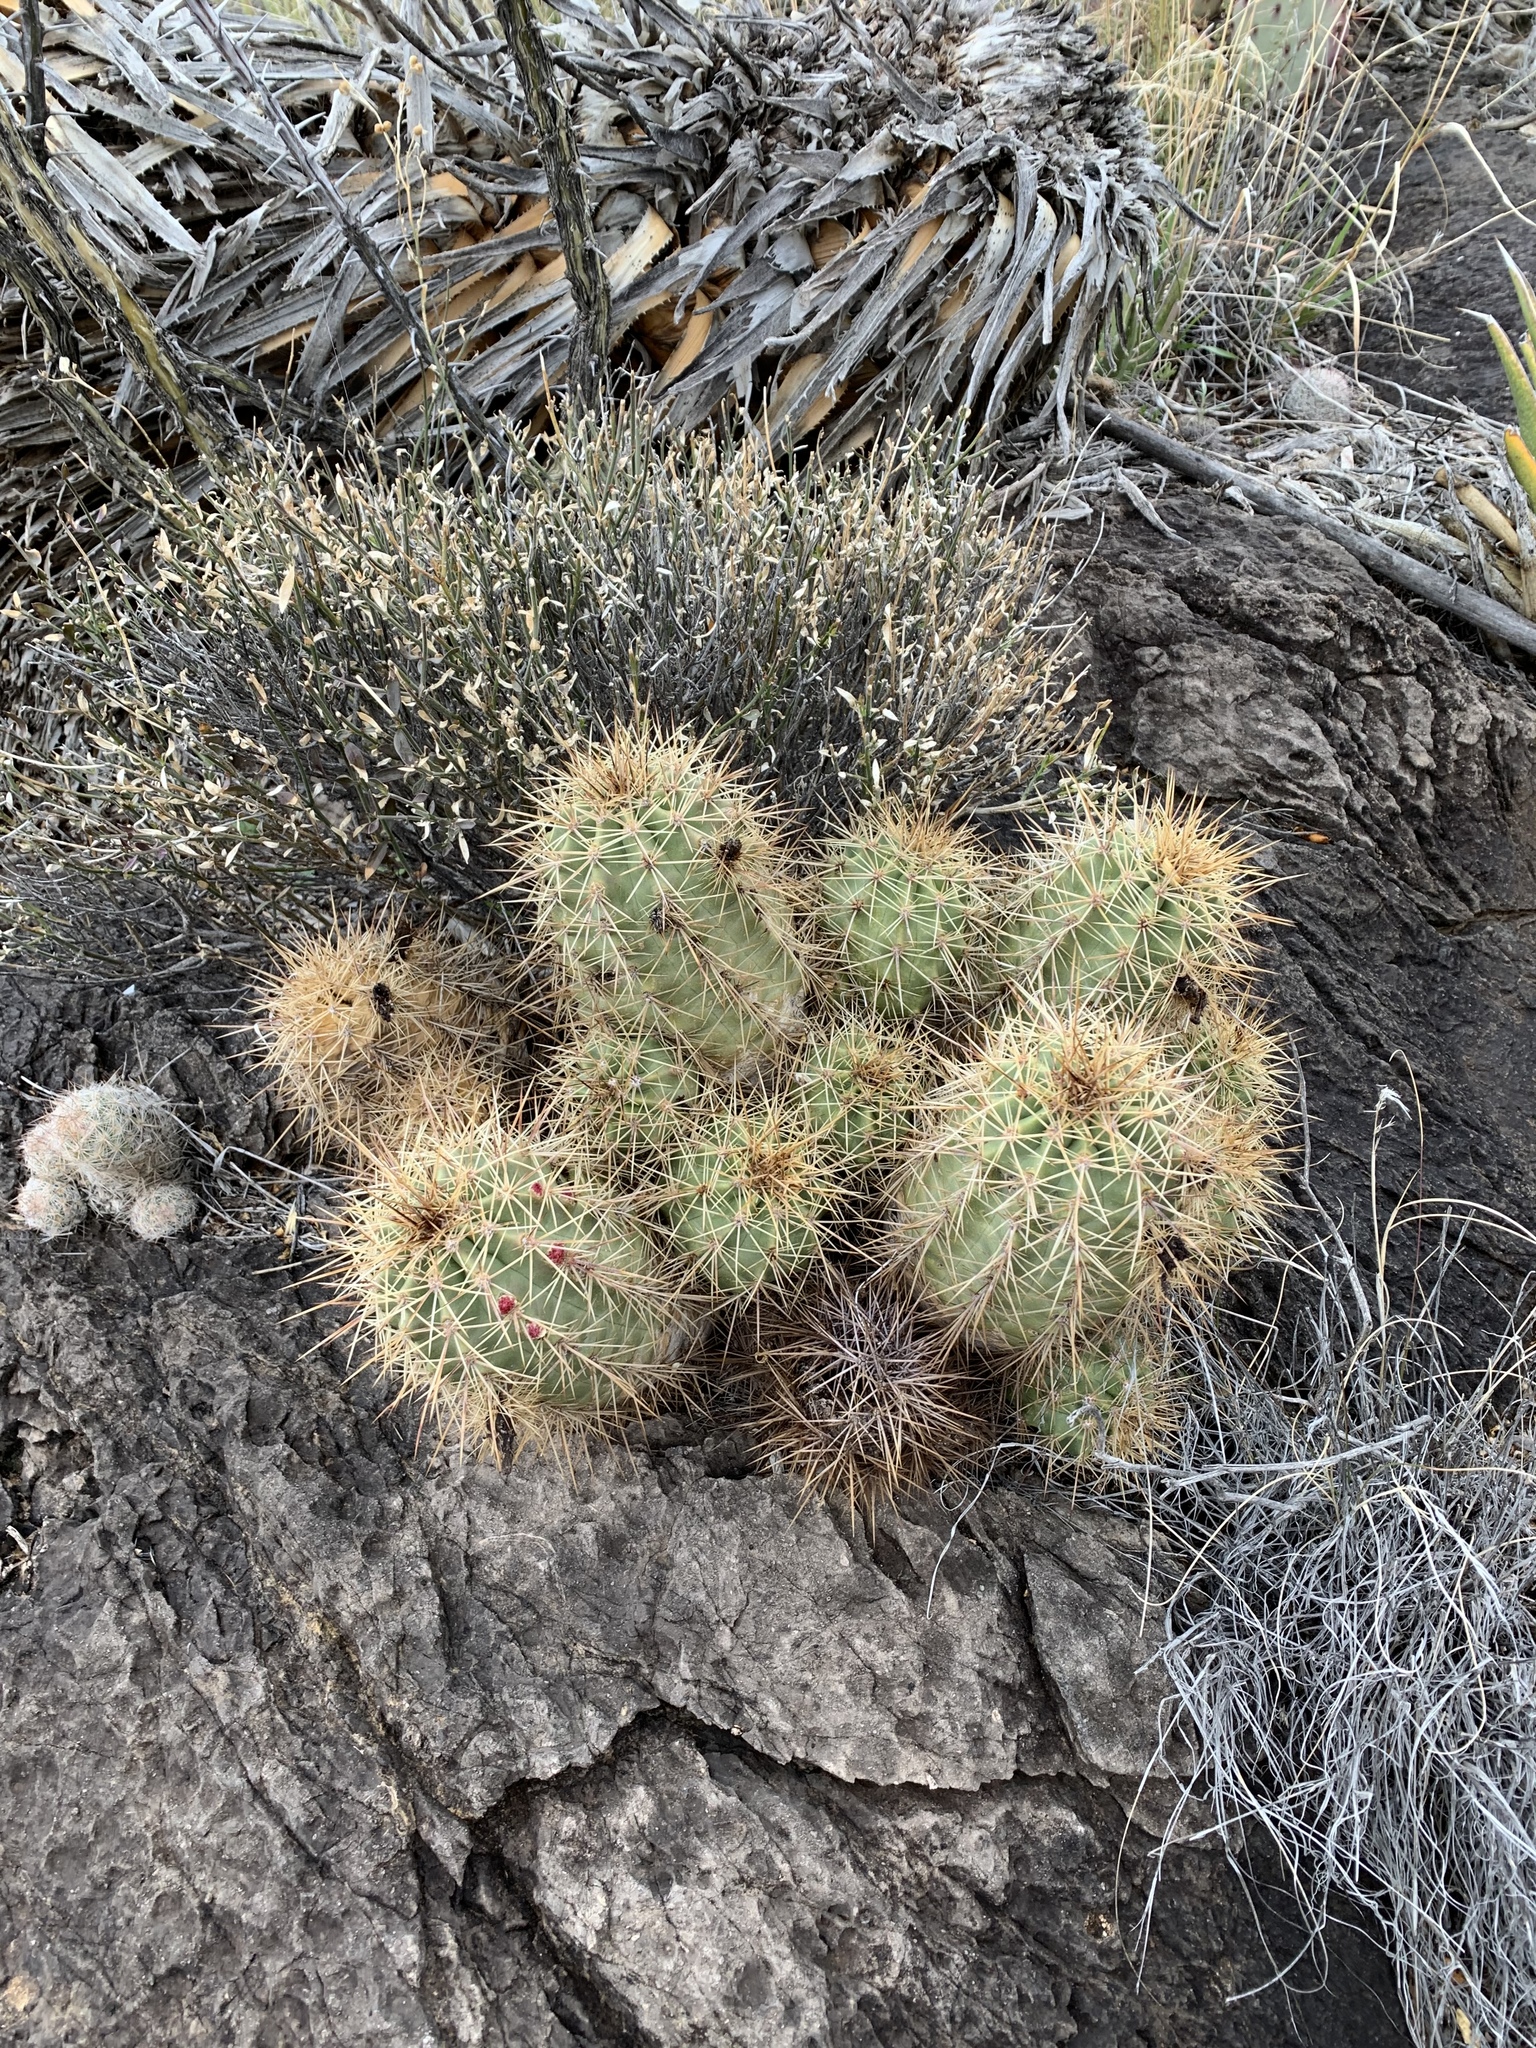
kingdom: Plantae
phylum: Tracheophyta
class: Magnoliopsida
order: Caryophyllales
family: Cactaceae
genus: Echinocereus
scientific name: Echinocereus coccineus
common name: Scarlet hedgehog cactus
